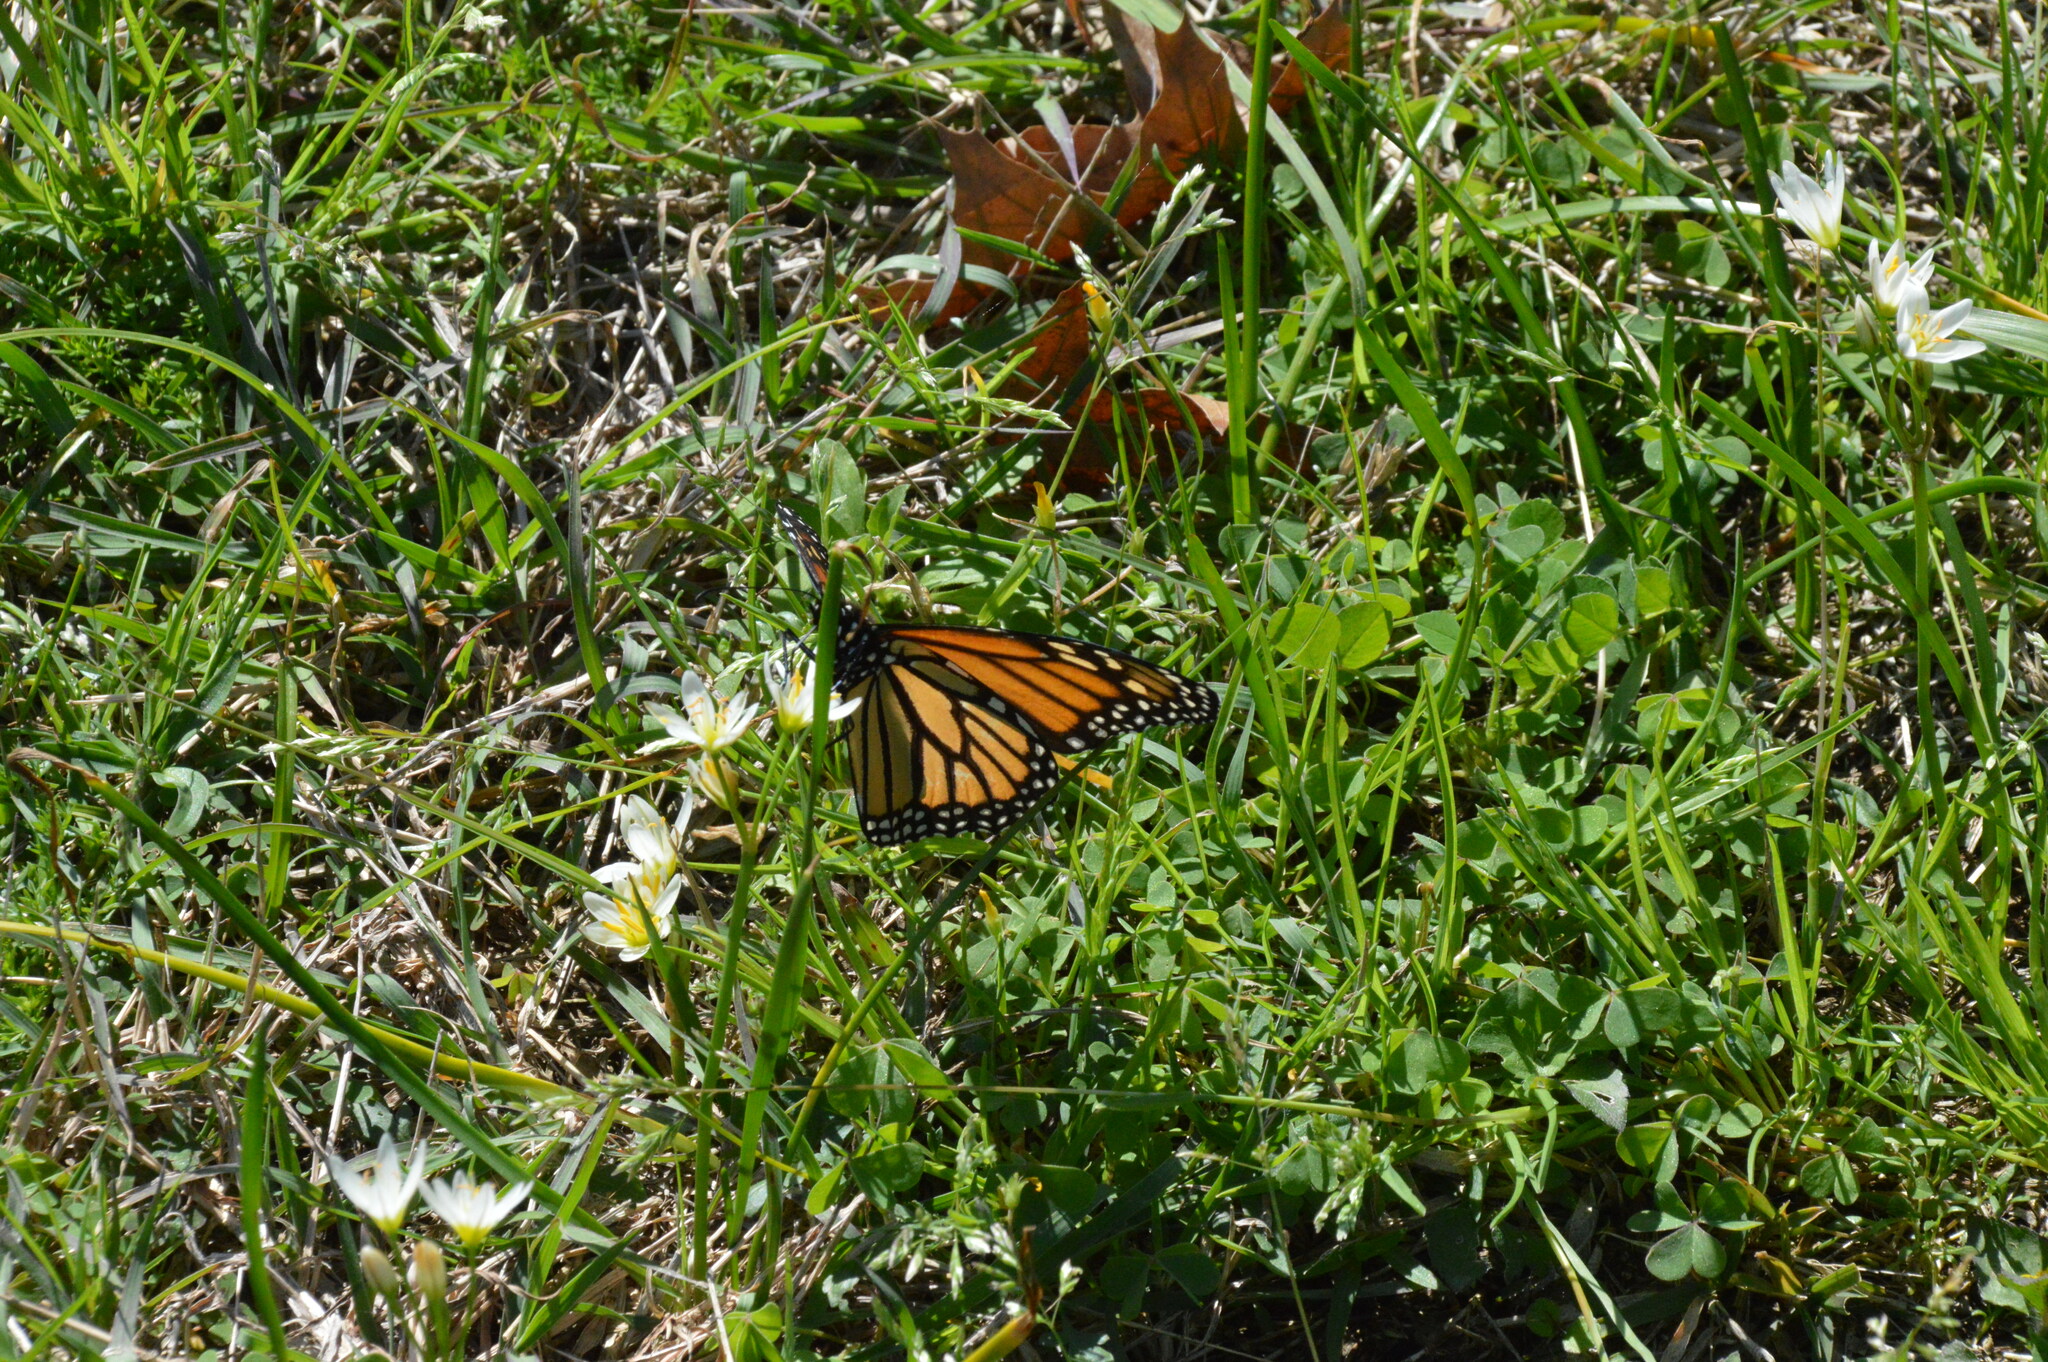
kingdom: Animalia
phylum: Arthropoda
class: Insecta
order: Lepidoptera
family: Nymphalidae
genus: Danaus
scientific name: Danaus plexippus
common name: Monarch
